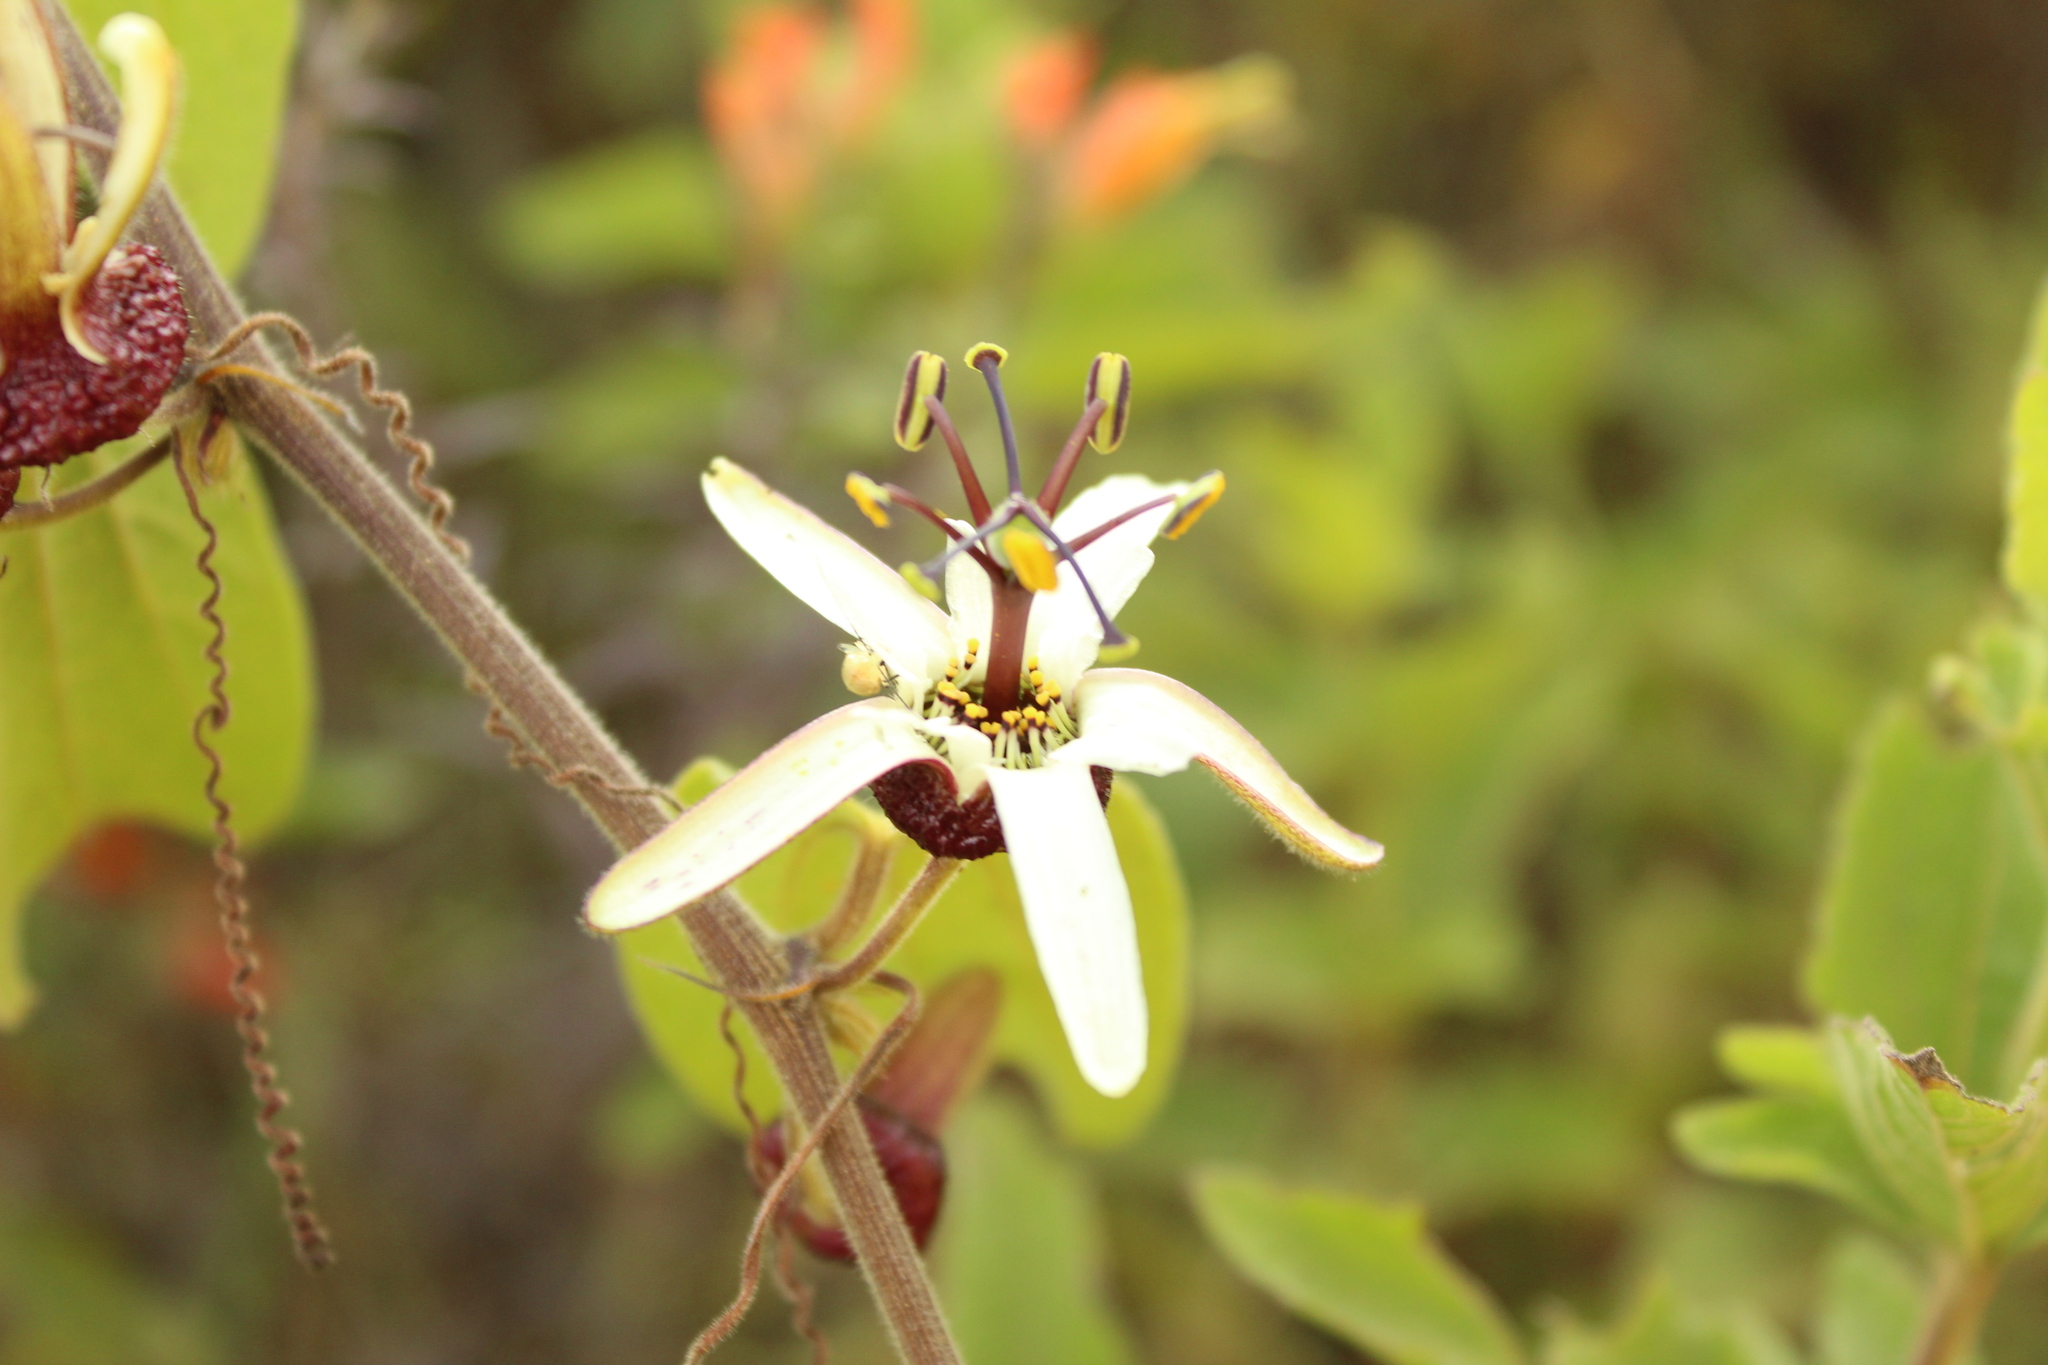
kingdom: Plantae
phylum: Tracheophyta
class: Magnoliopsida
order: Malpighiales
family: Passifloraceae
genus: Passiflora
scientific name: Passiflora bogotensis
